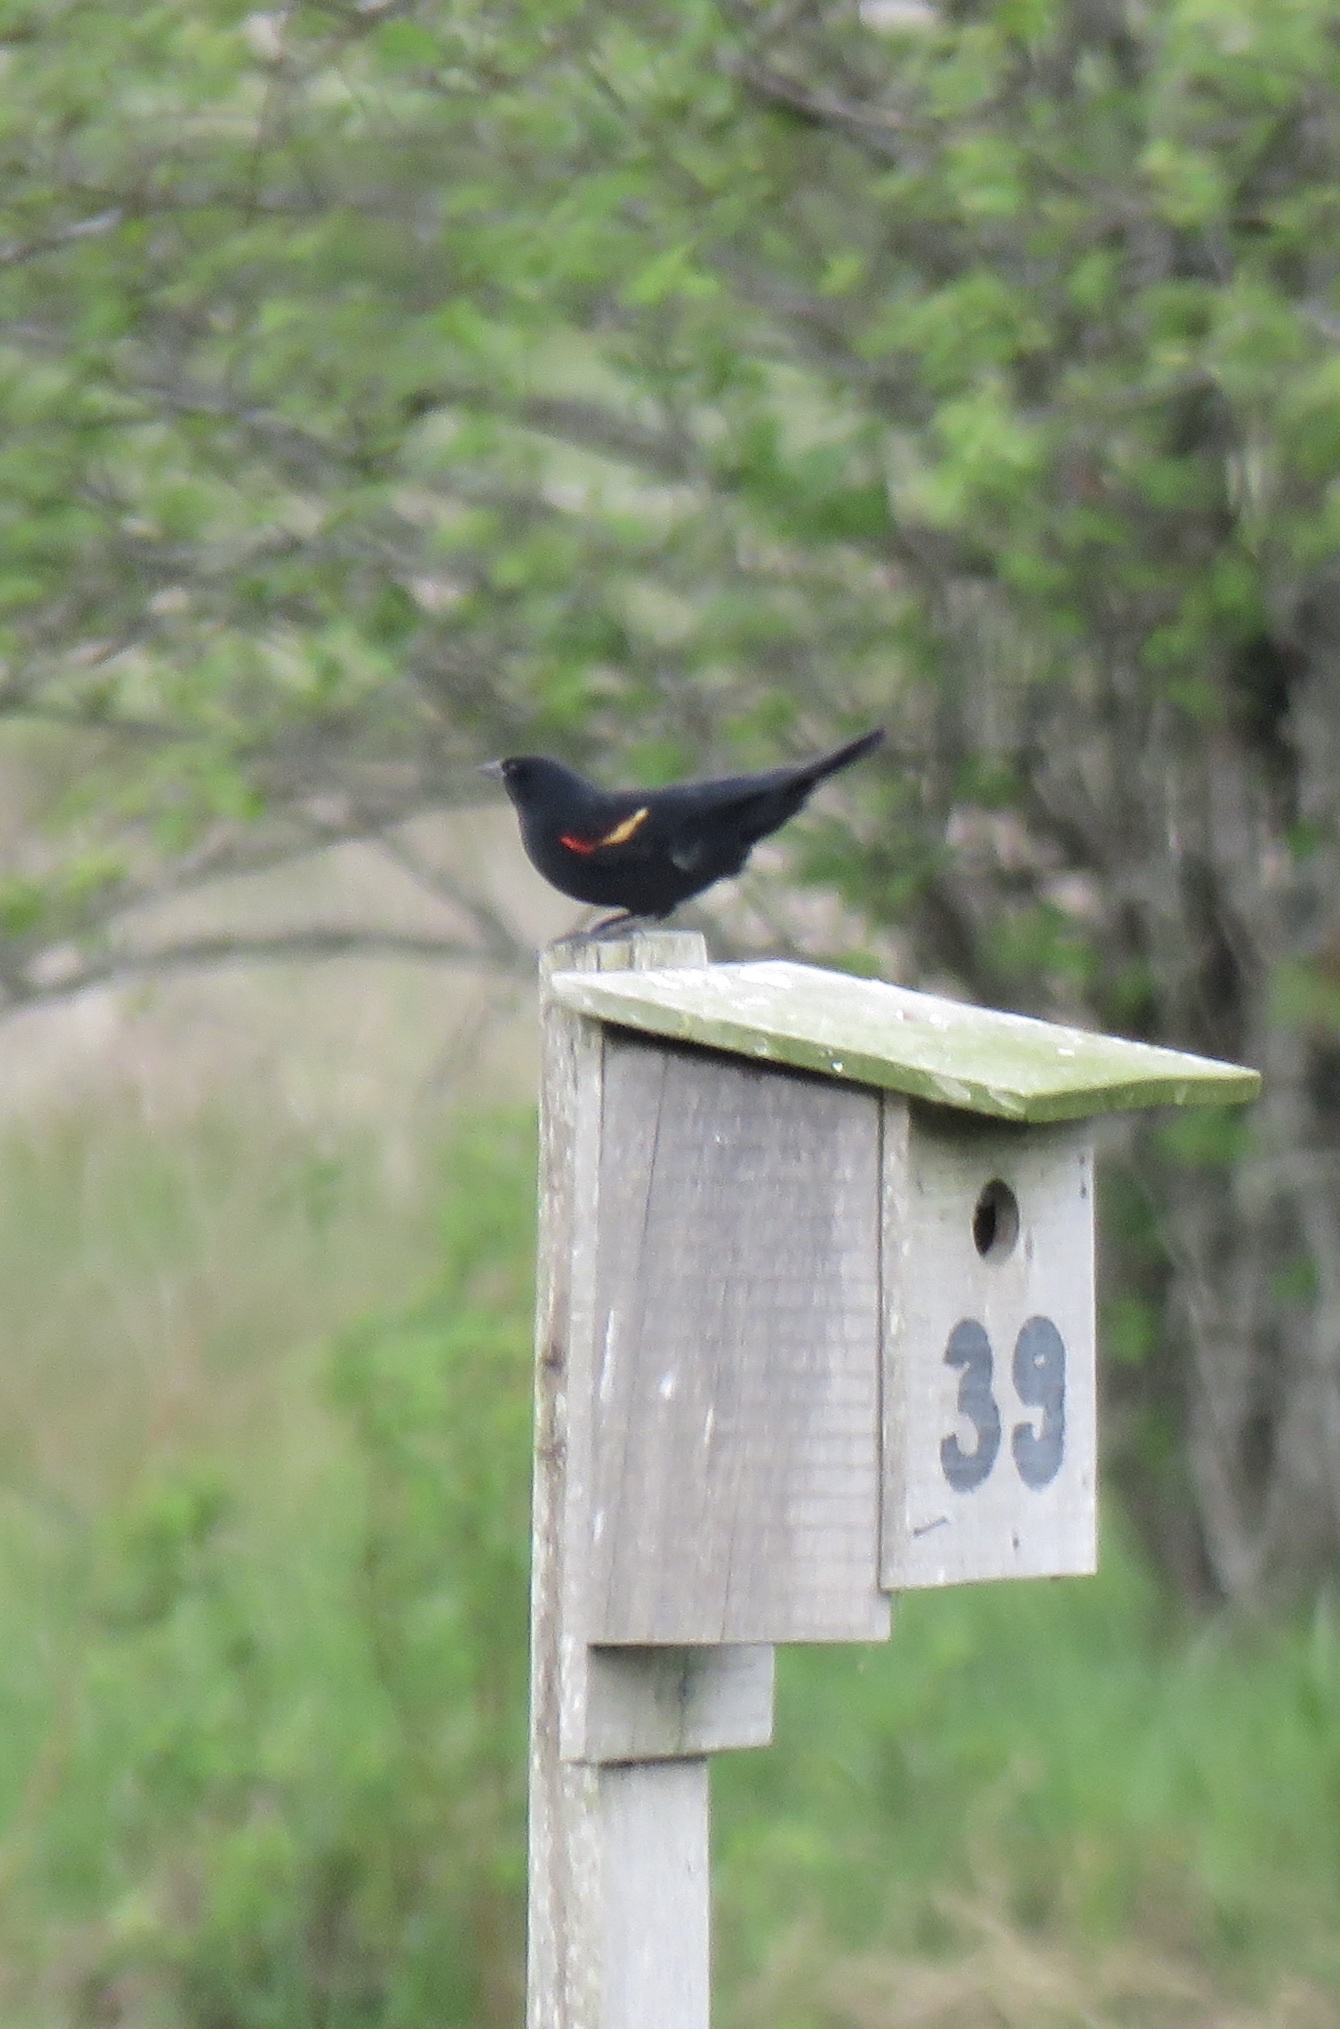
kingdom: Animalia
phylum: Chordata
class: Aves
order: Passeriformes
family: Icteridae
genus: Agelaius
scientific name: Agelaius phoeniceus
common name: Red-winged blackbird
